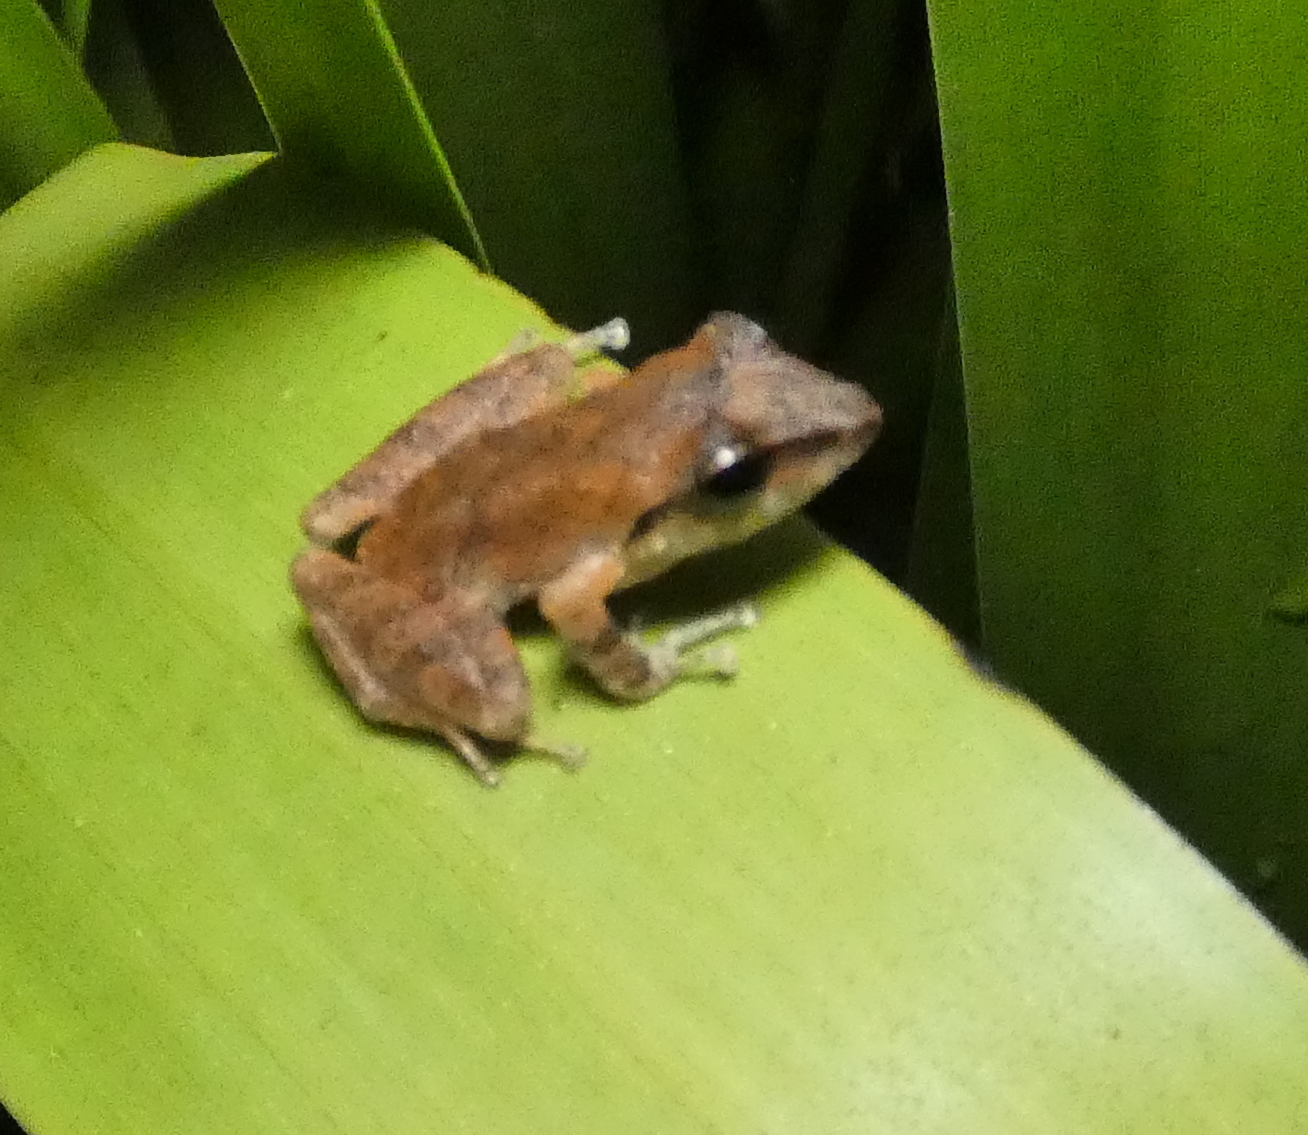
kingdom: Animalia
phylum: Chordata
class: Amphibia
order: Anura
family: Craugastoridae
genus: Pristimantis
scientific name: Pristimantis ramagii
